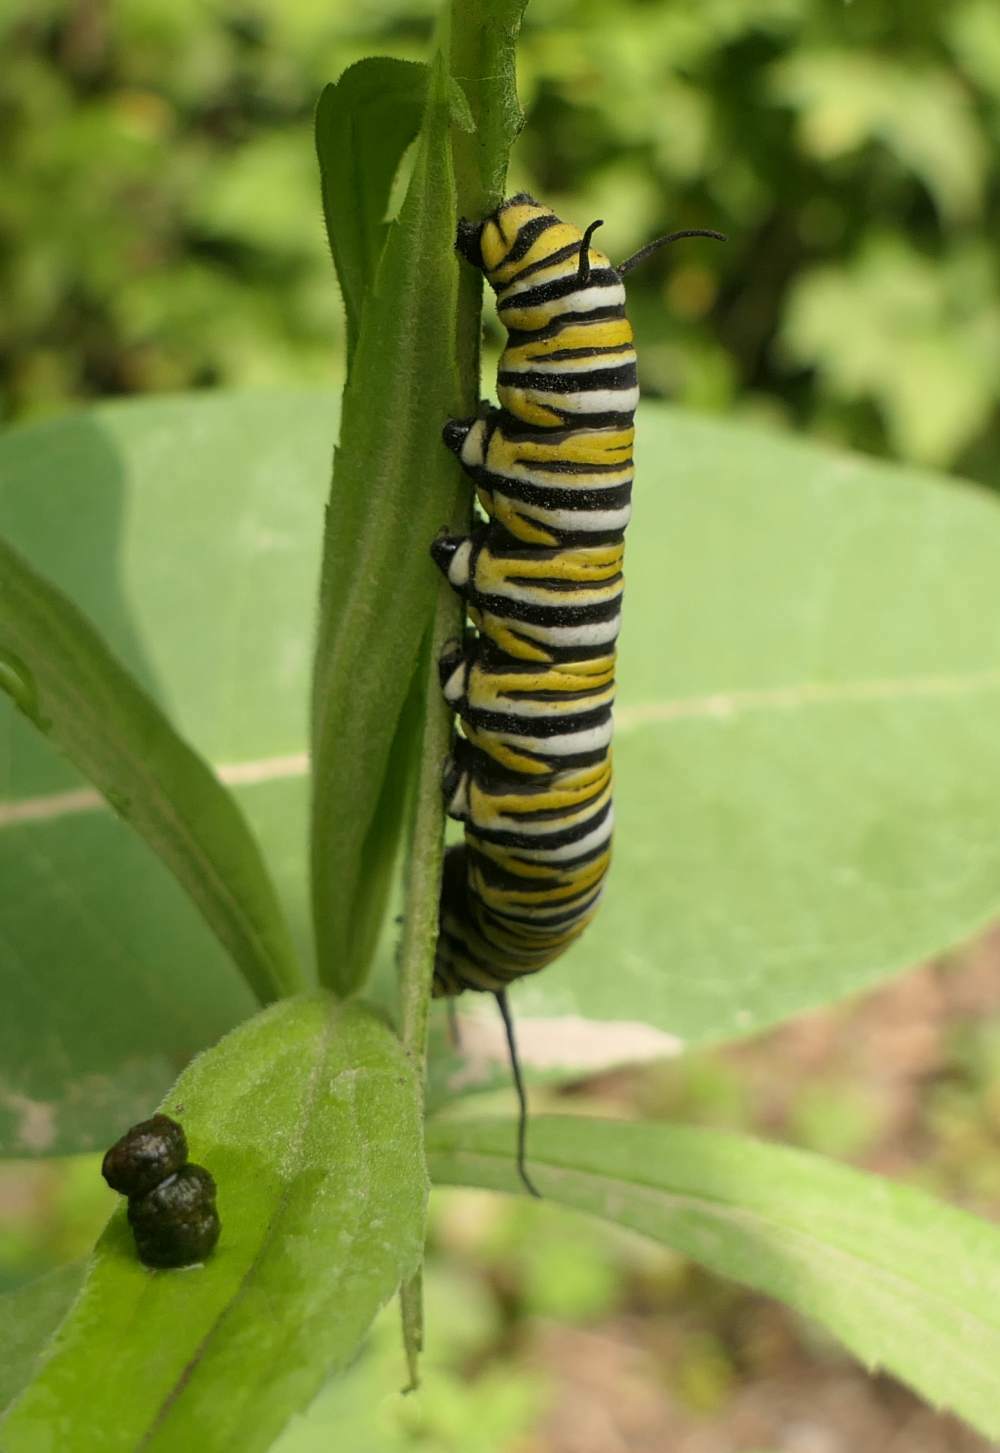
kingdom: Animalia
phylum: Arthropoda
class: Insecta
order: Lepidoptera
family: Nymphalidae
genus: Danaus
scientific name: Danaus plexippus
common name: Monarch
